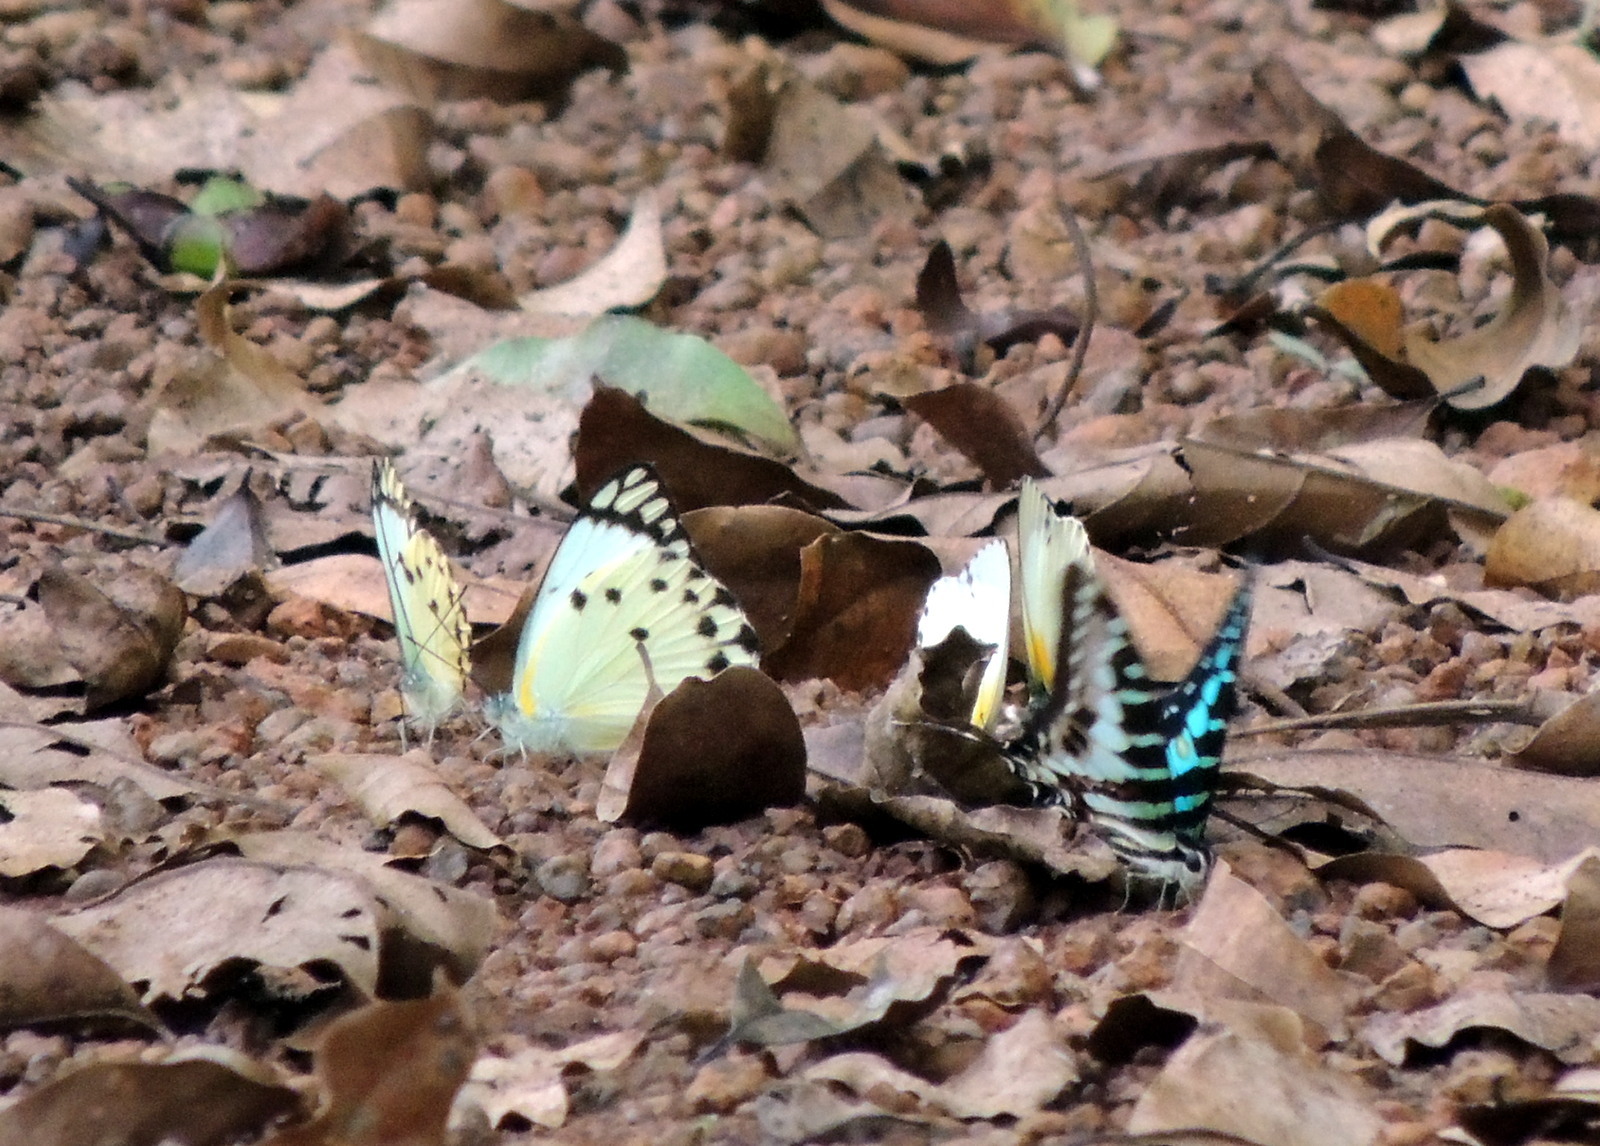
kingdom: Animalia
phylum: Arthropoda
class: Insecta
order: Lepidoptera
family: Papilionidae
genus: Graphium
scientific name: Graphium policenes
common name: Common swordtail
